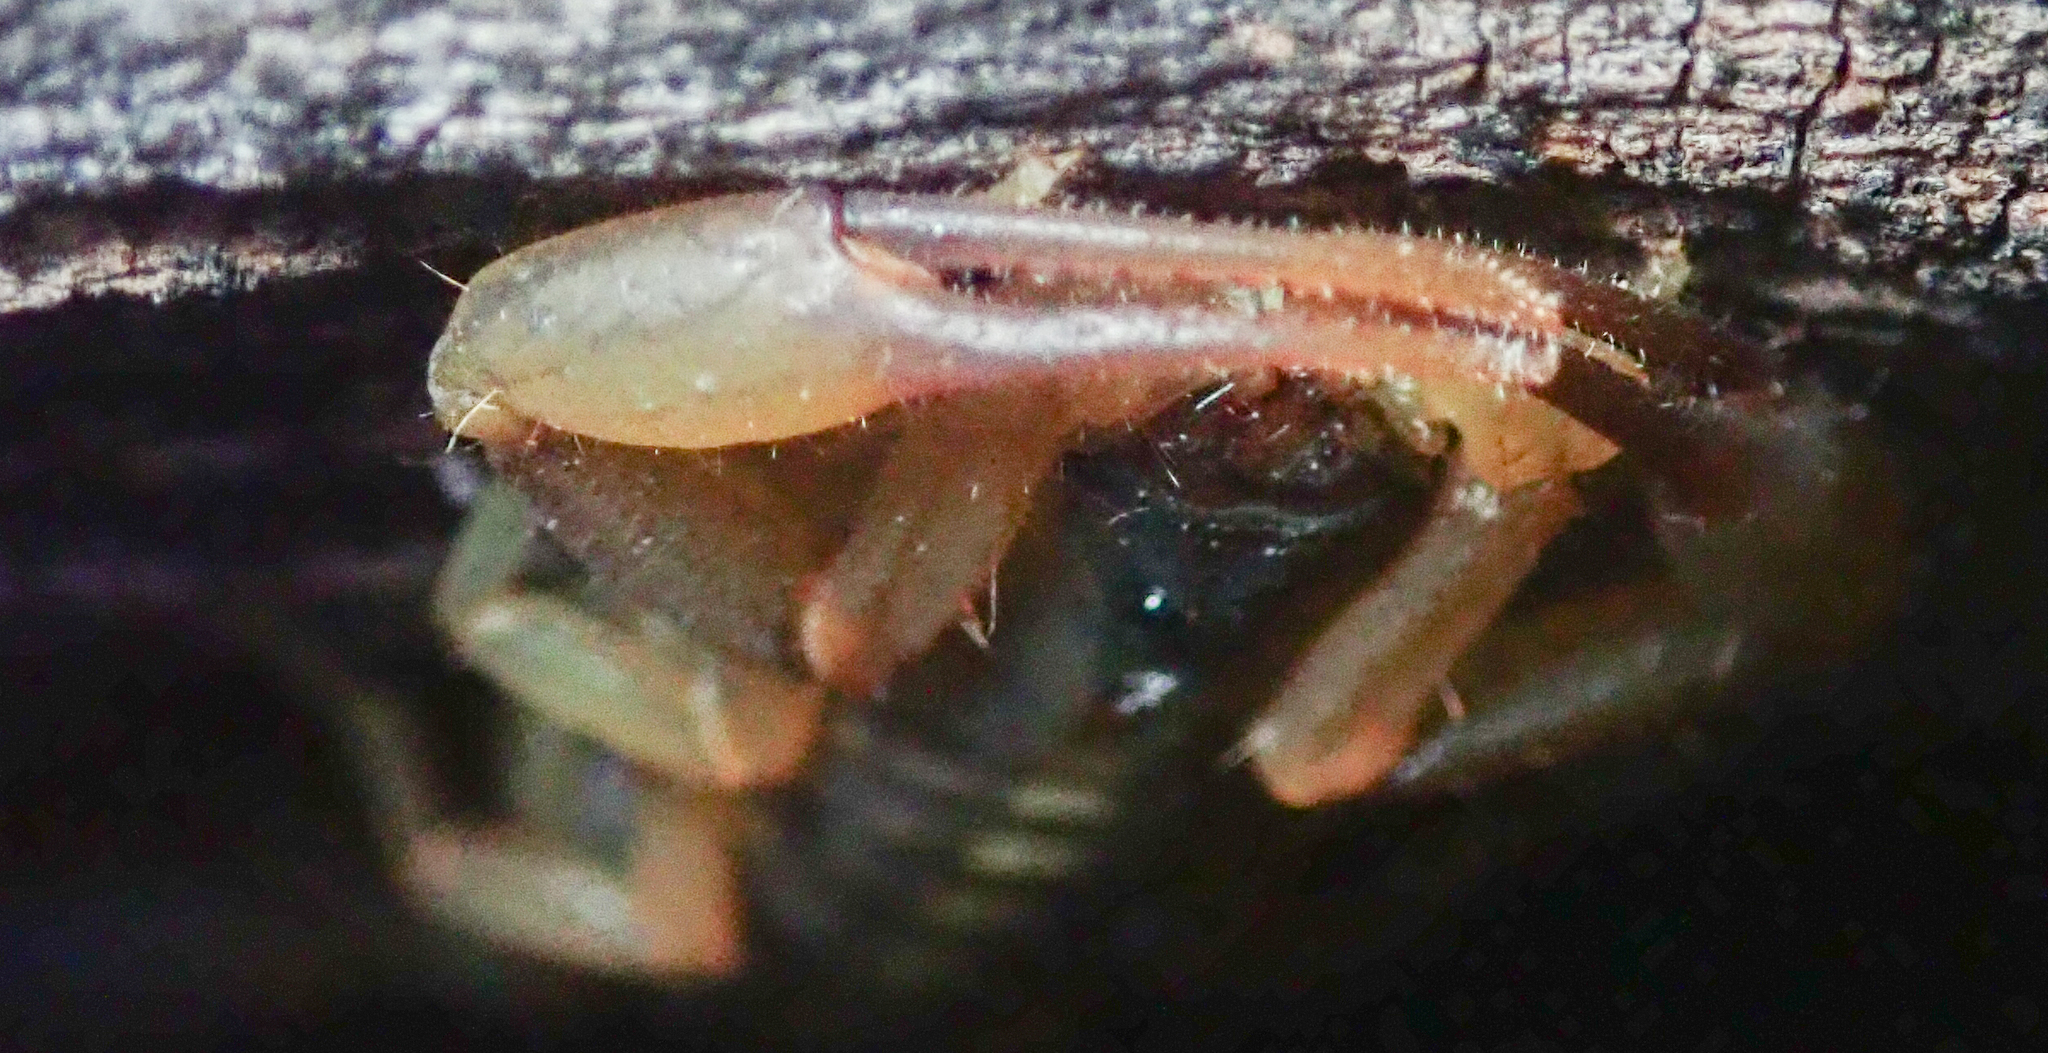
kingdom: Animalia
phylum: Arthropoda
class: Arachnida
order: Scorpiones
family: Buthidae
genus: Uroplectes
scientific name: Uroplectes vittatus
